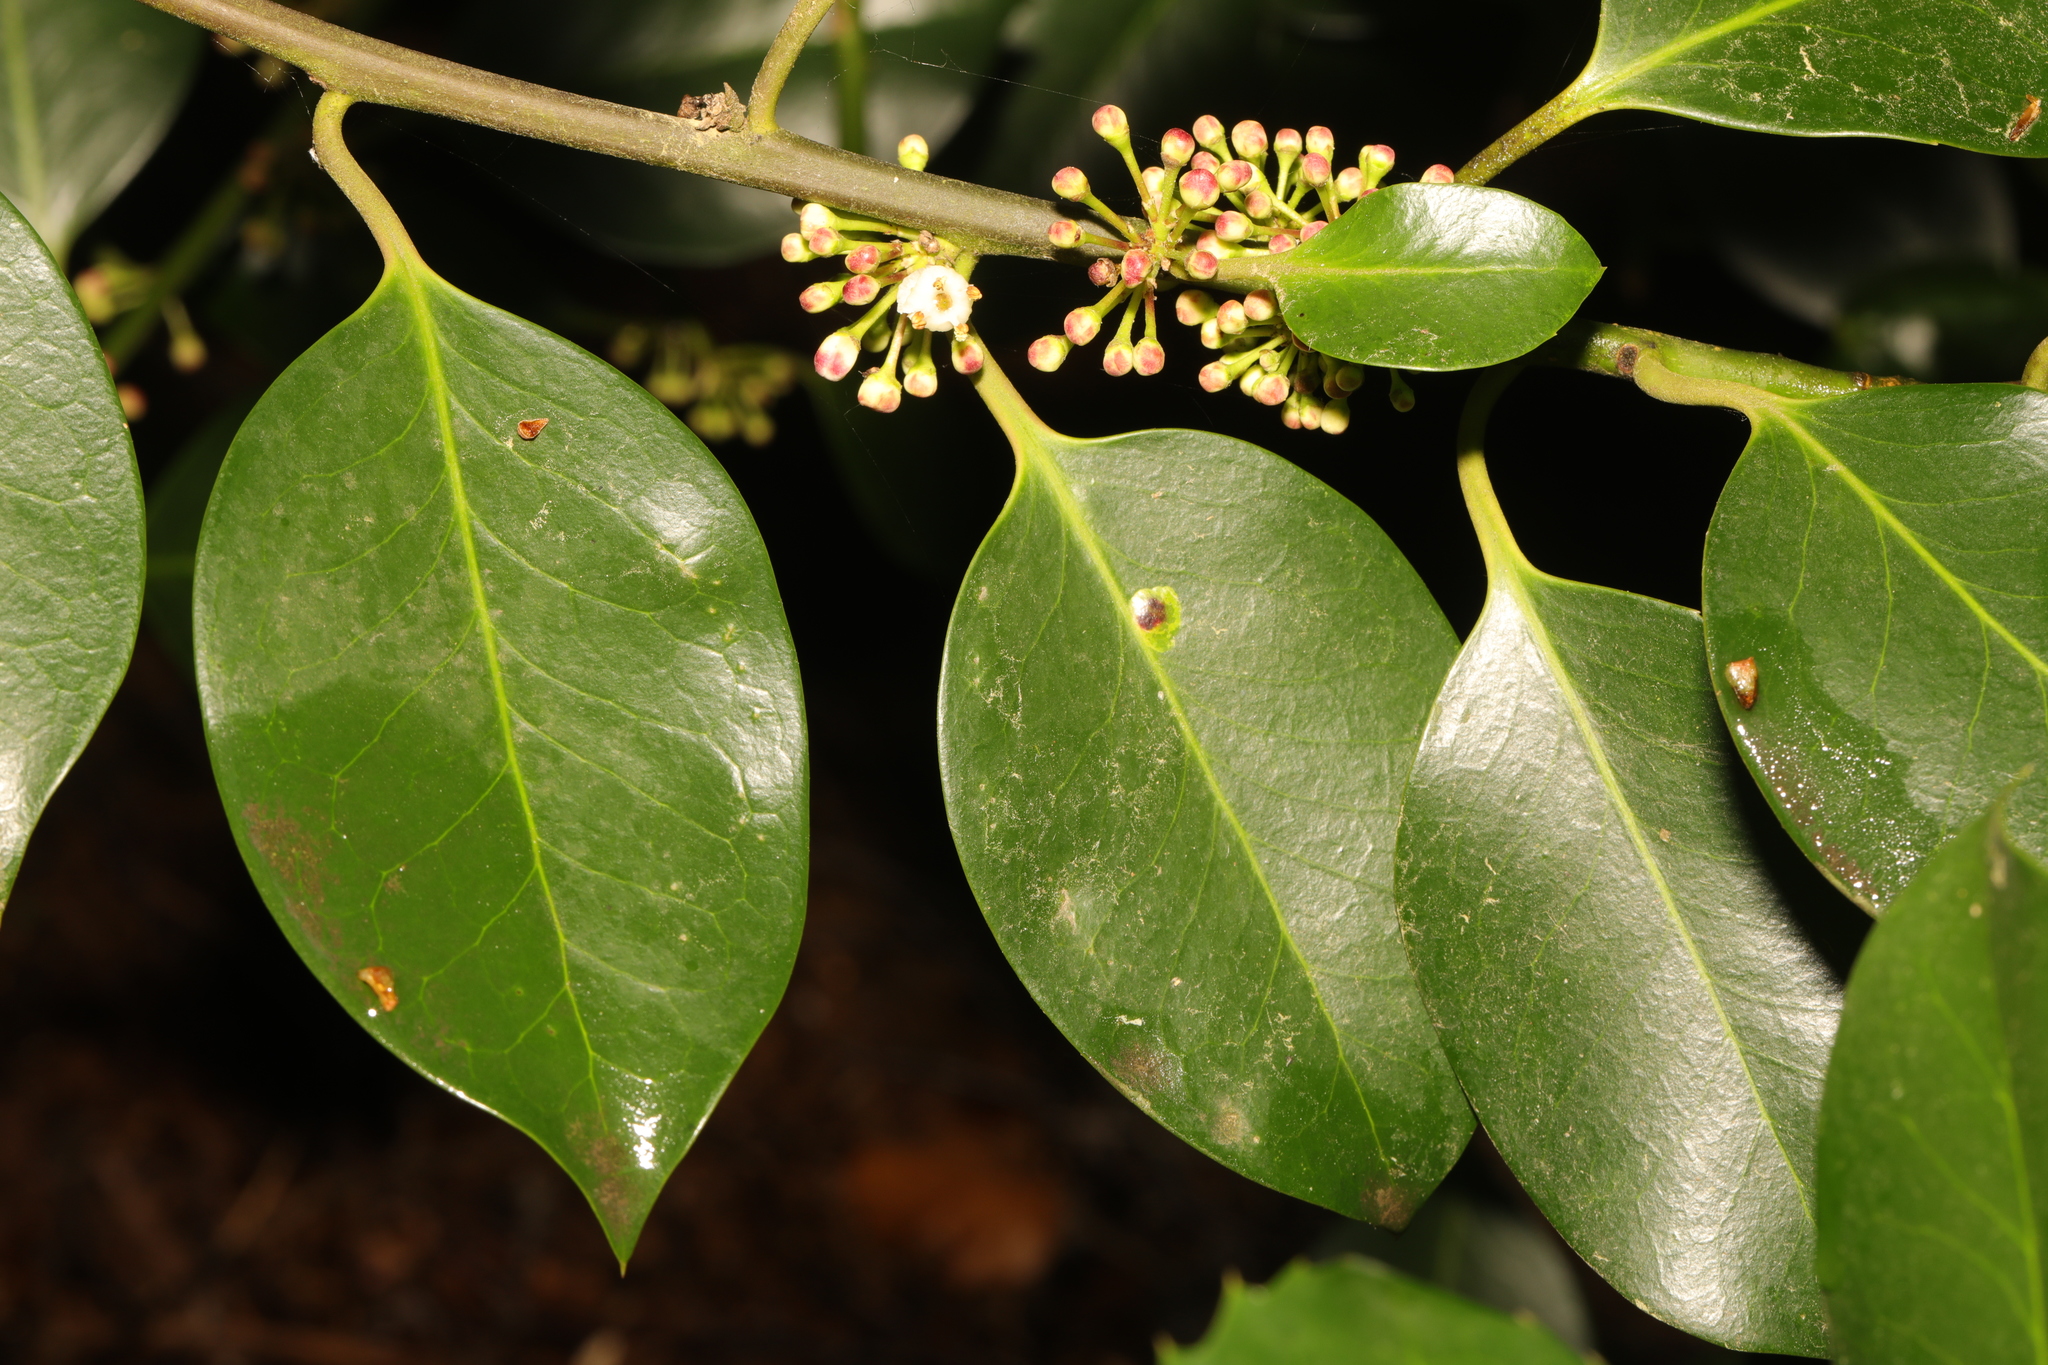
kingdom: Plantae
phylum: Tracheophyta
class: Magnoliopsida
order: Aquifoliales
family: Aquifoliaceae
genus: Ilex
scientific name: Ilex aquifolium
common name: English holly
